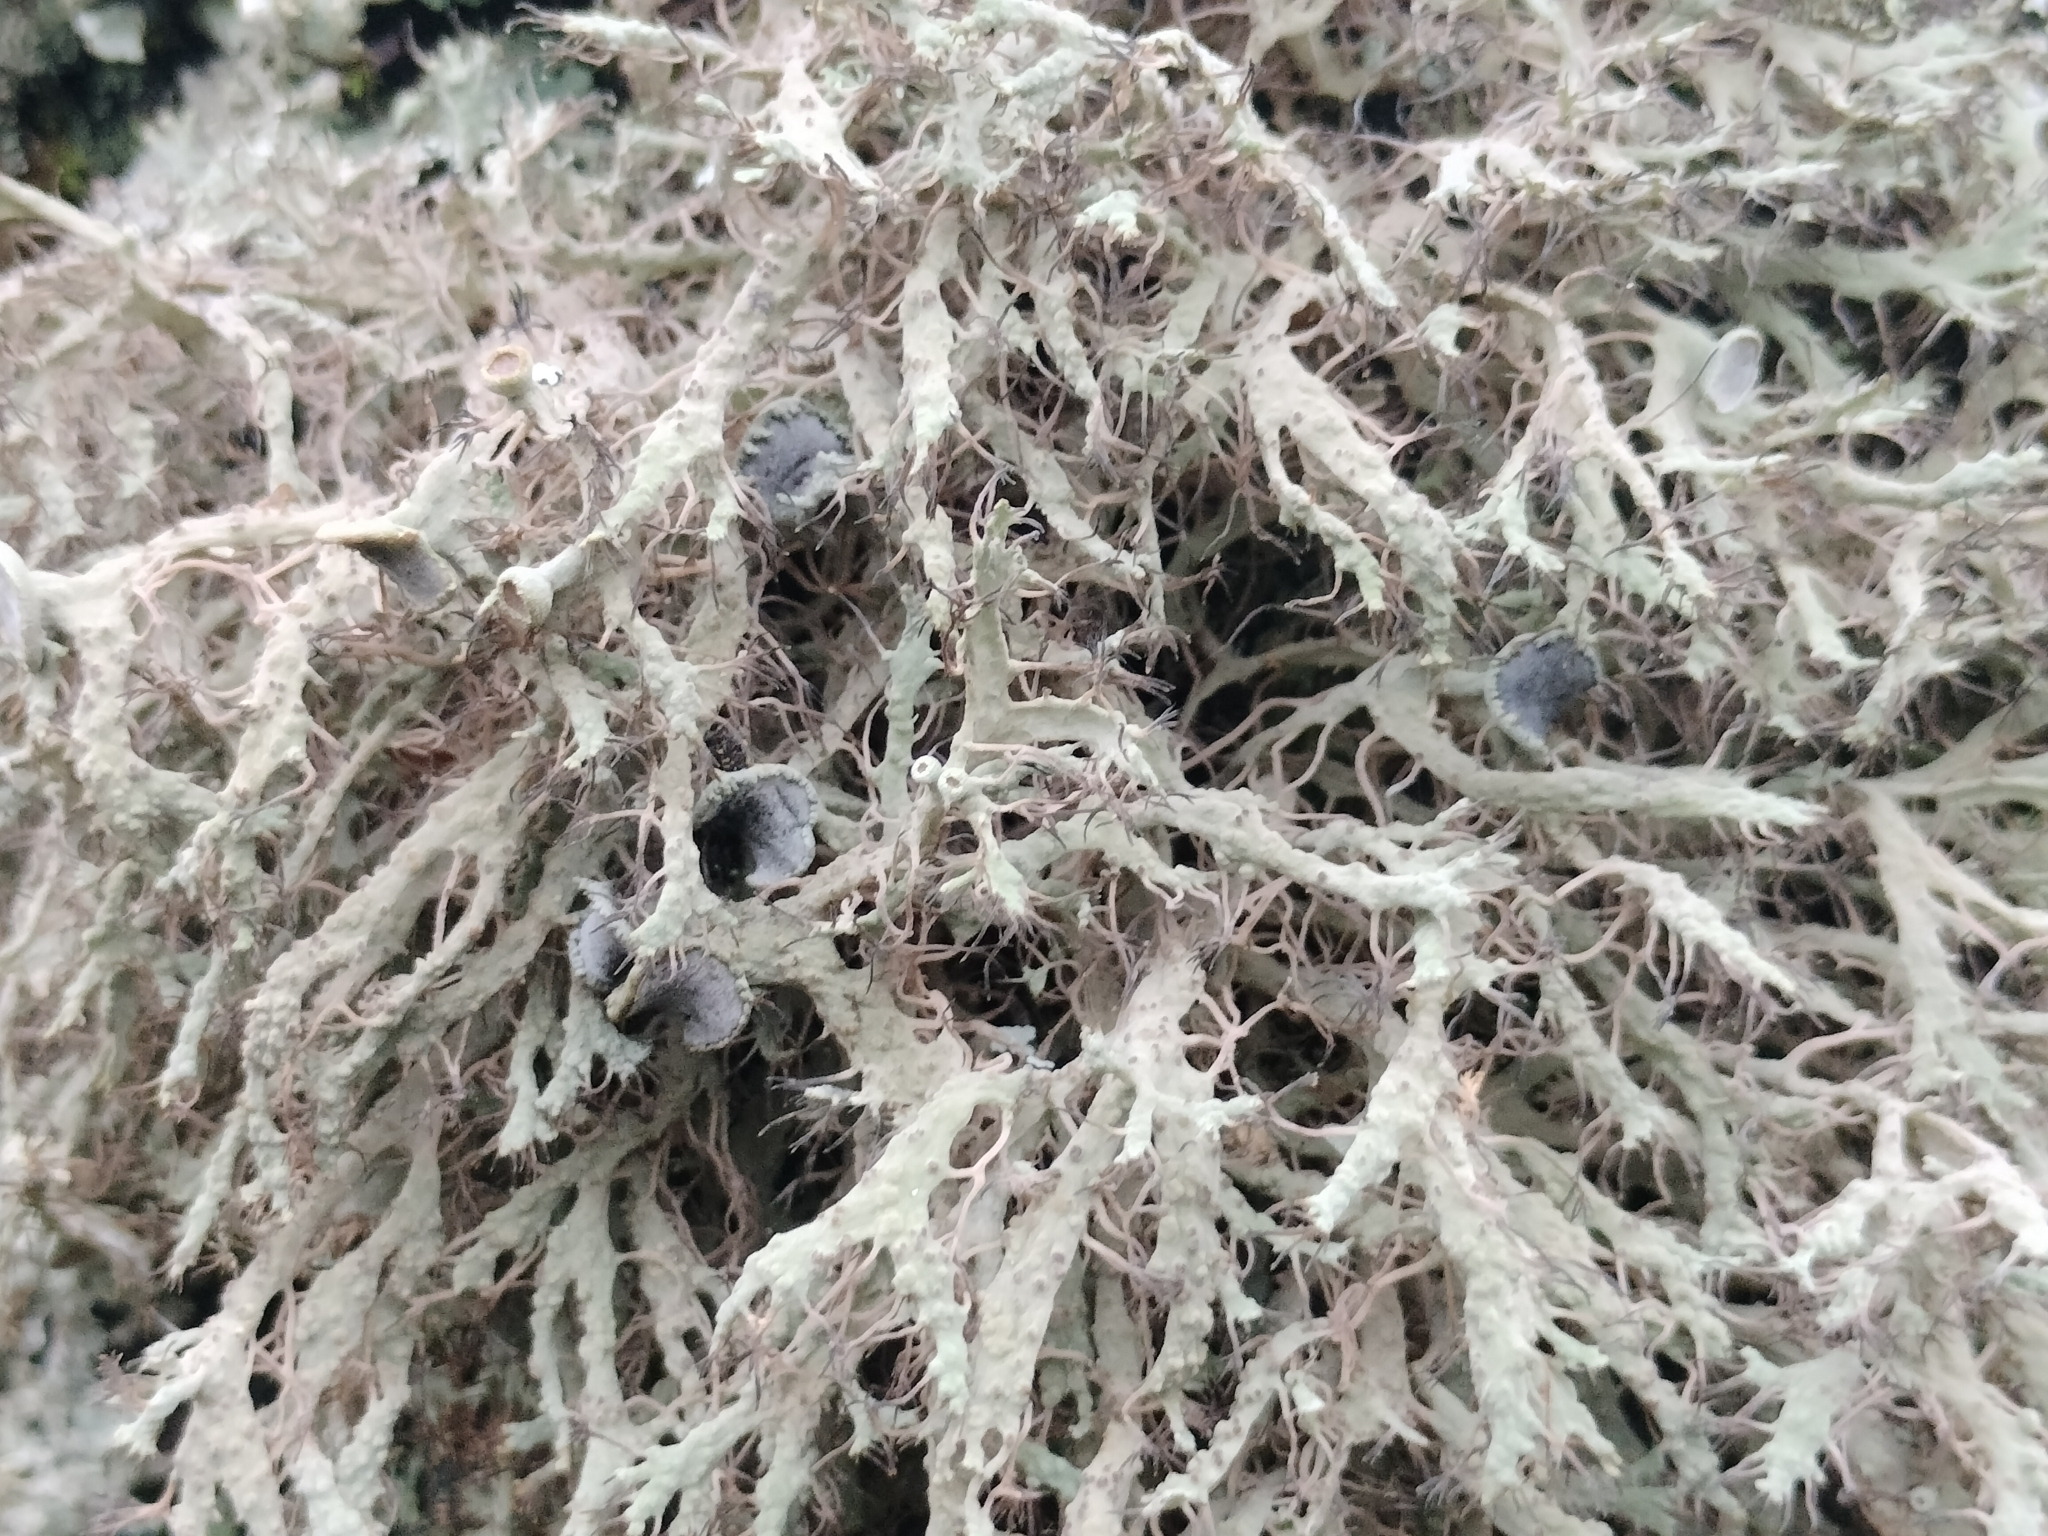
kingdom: Fungi
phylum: Ascomycota
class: Lecanoromycetes
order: Caliciales
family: Physciaceae
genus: Anaptychia
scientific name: Anaptychia ciliaris
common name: Great ciliated lichen
